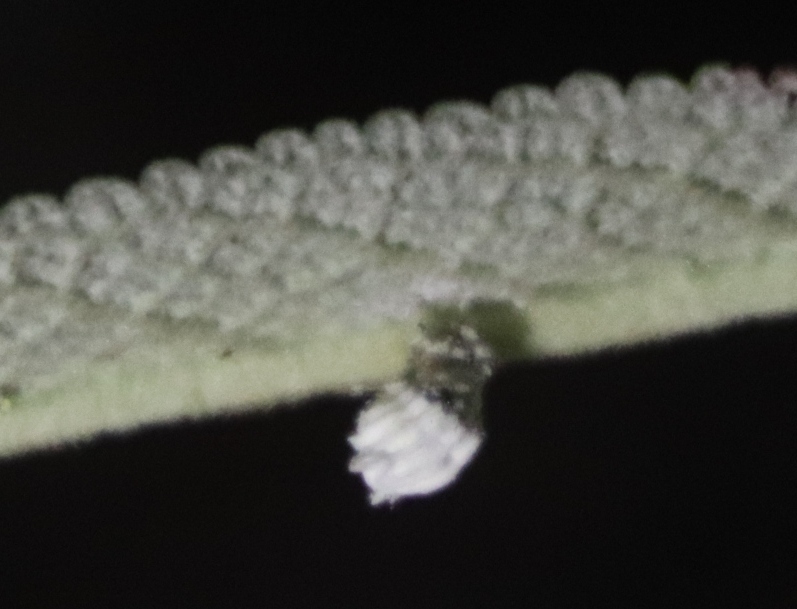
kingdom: Animalia
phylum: Arthropoda
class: Insecta
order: Hemiptera
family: Margarodidae
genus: Icerya
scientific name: Icerya purchasi
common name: Cottony cushion scale
